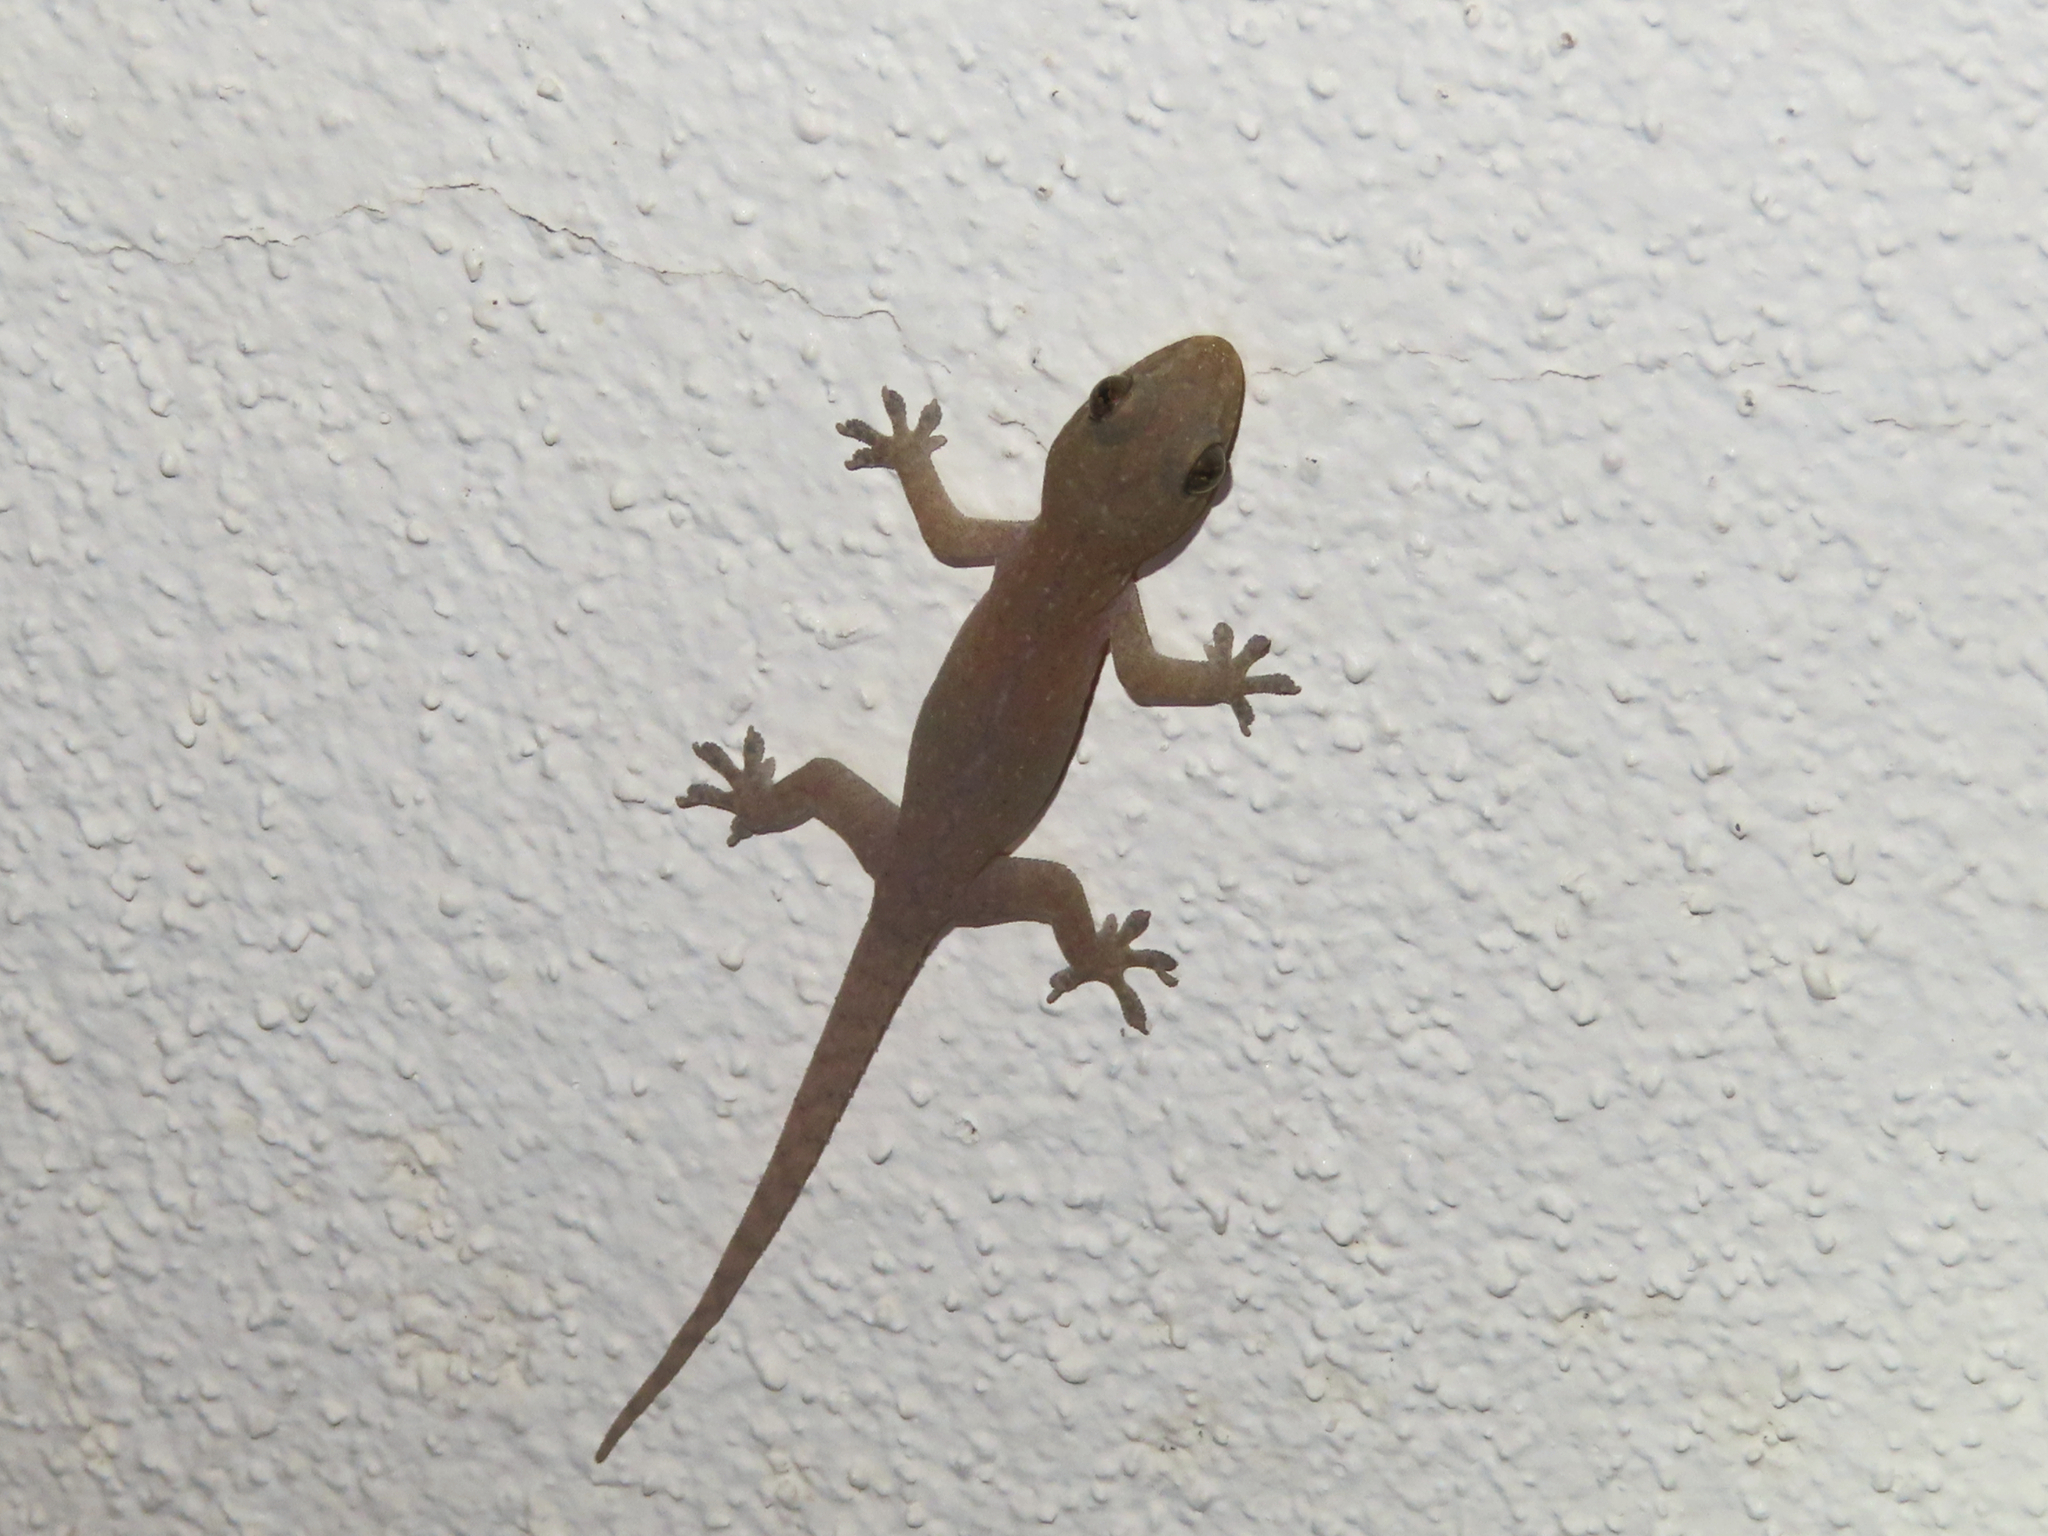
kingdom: Animalia
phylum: Chordata
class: Squamata
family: Gekkonidae
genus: Hemidactylus
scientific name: Hemidactylus frenatus
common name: Common house gecko
